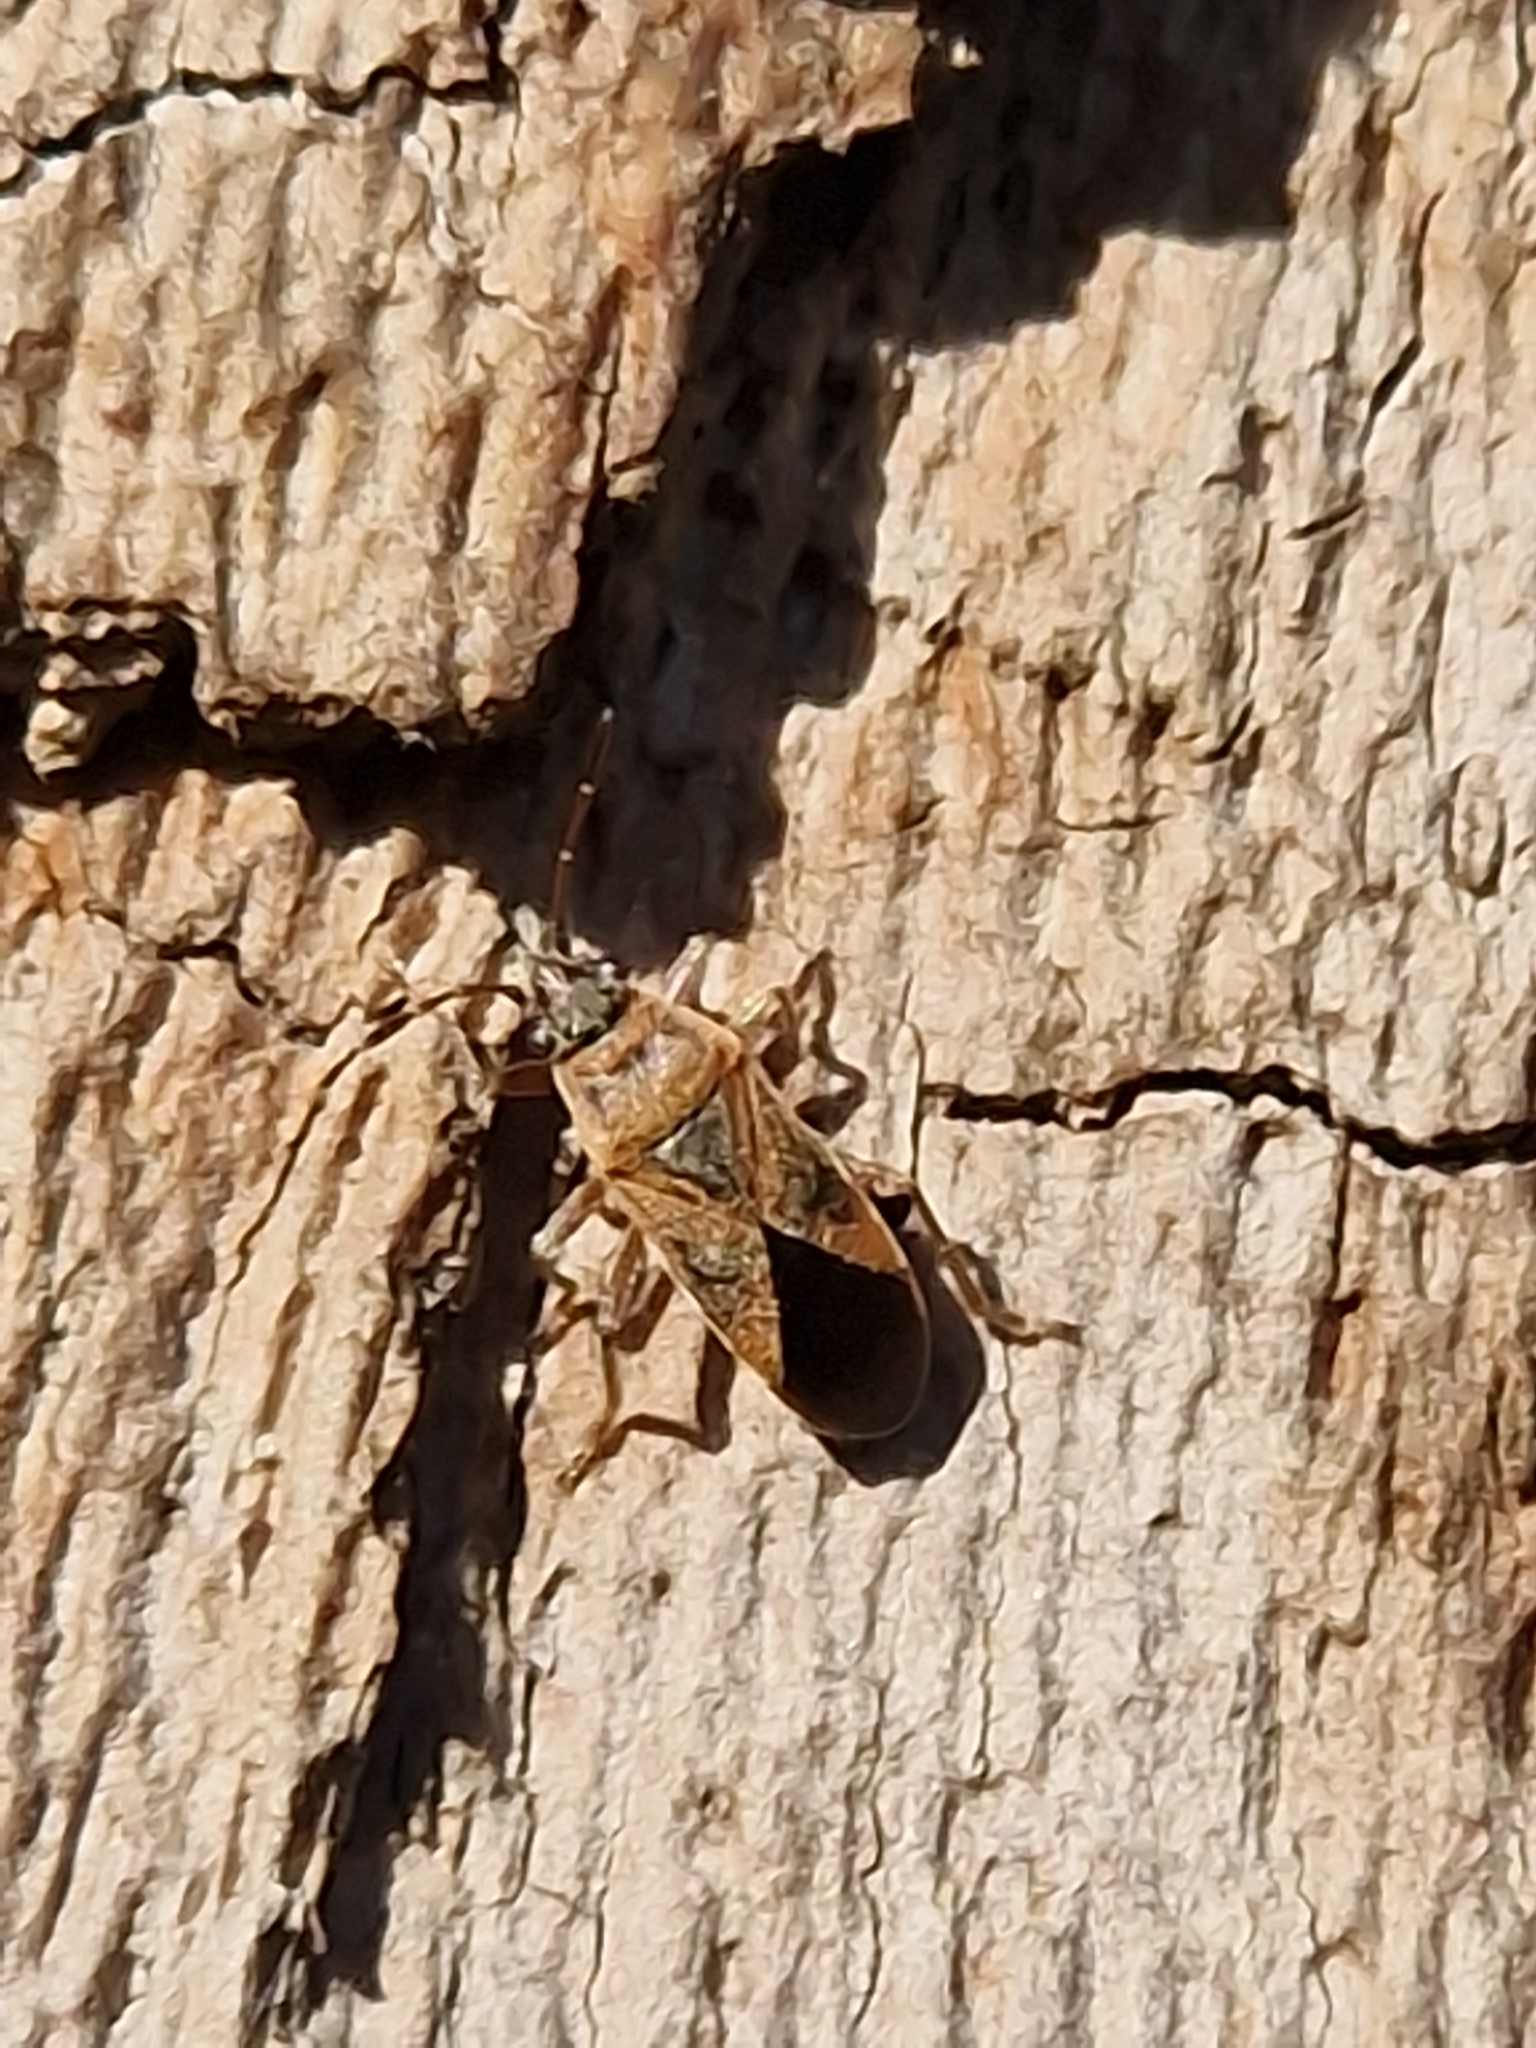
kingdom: Animalia
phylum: Arthropoda
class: Insecta
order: Hemiptera
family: Lygaeidae
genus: Arocatus
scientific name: Arocatus roeselii
